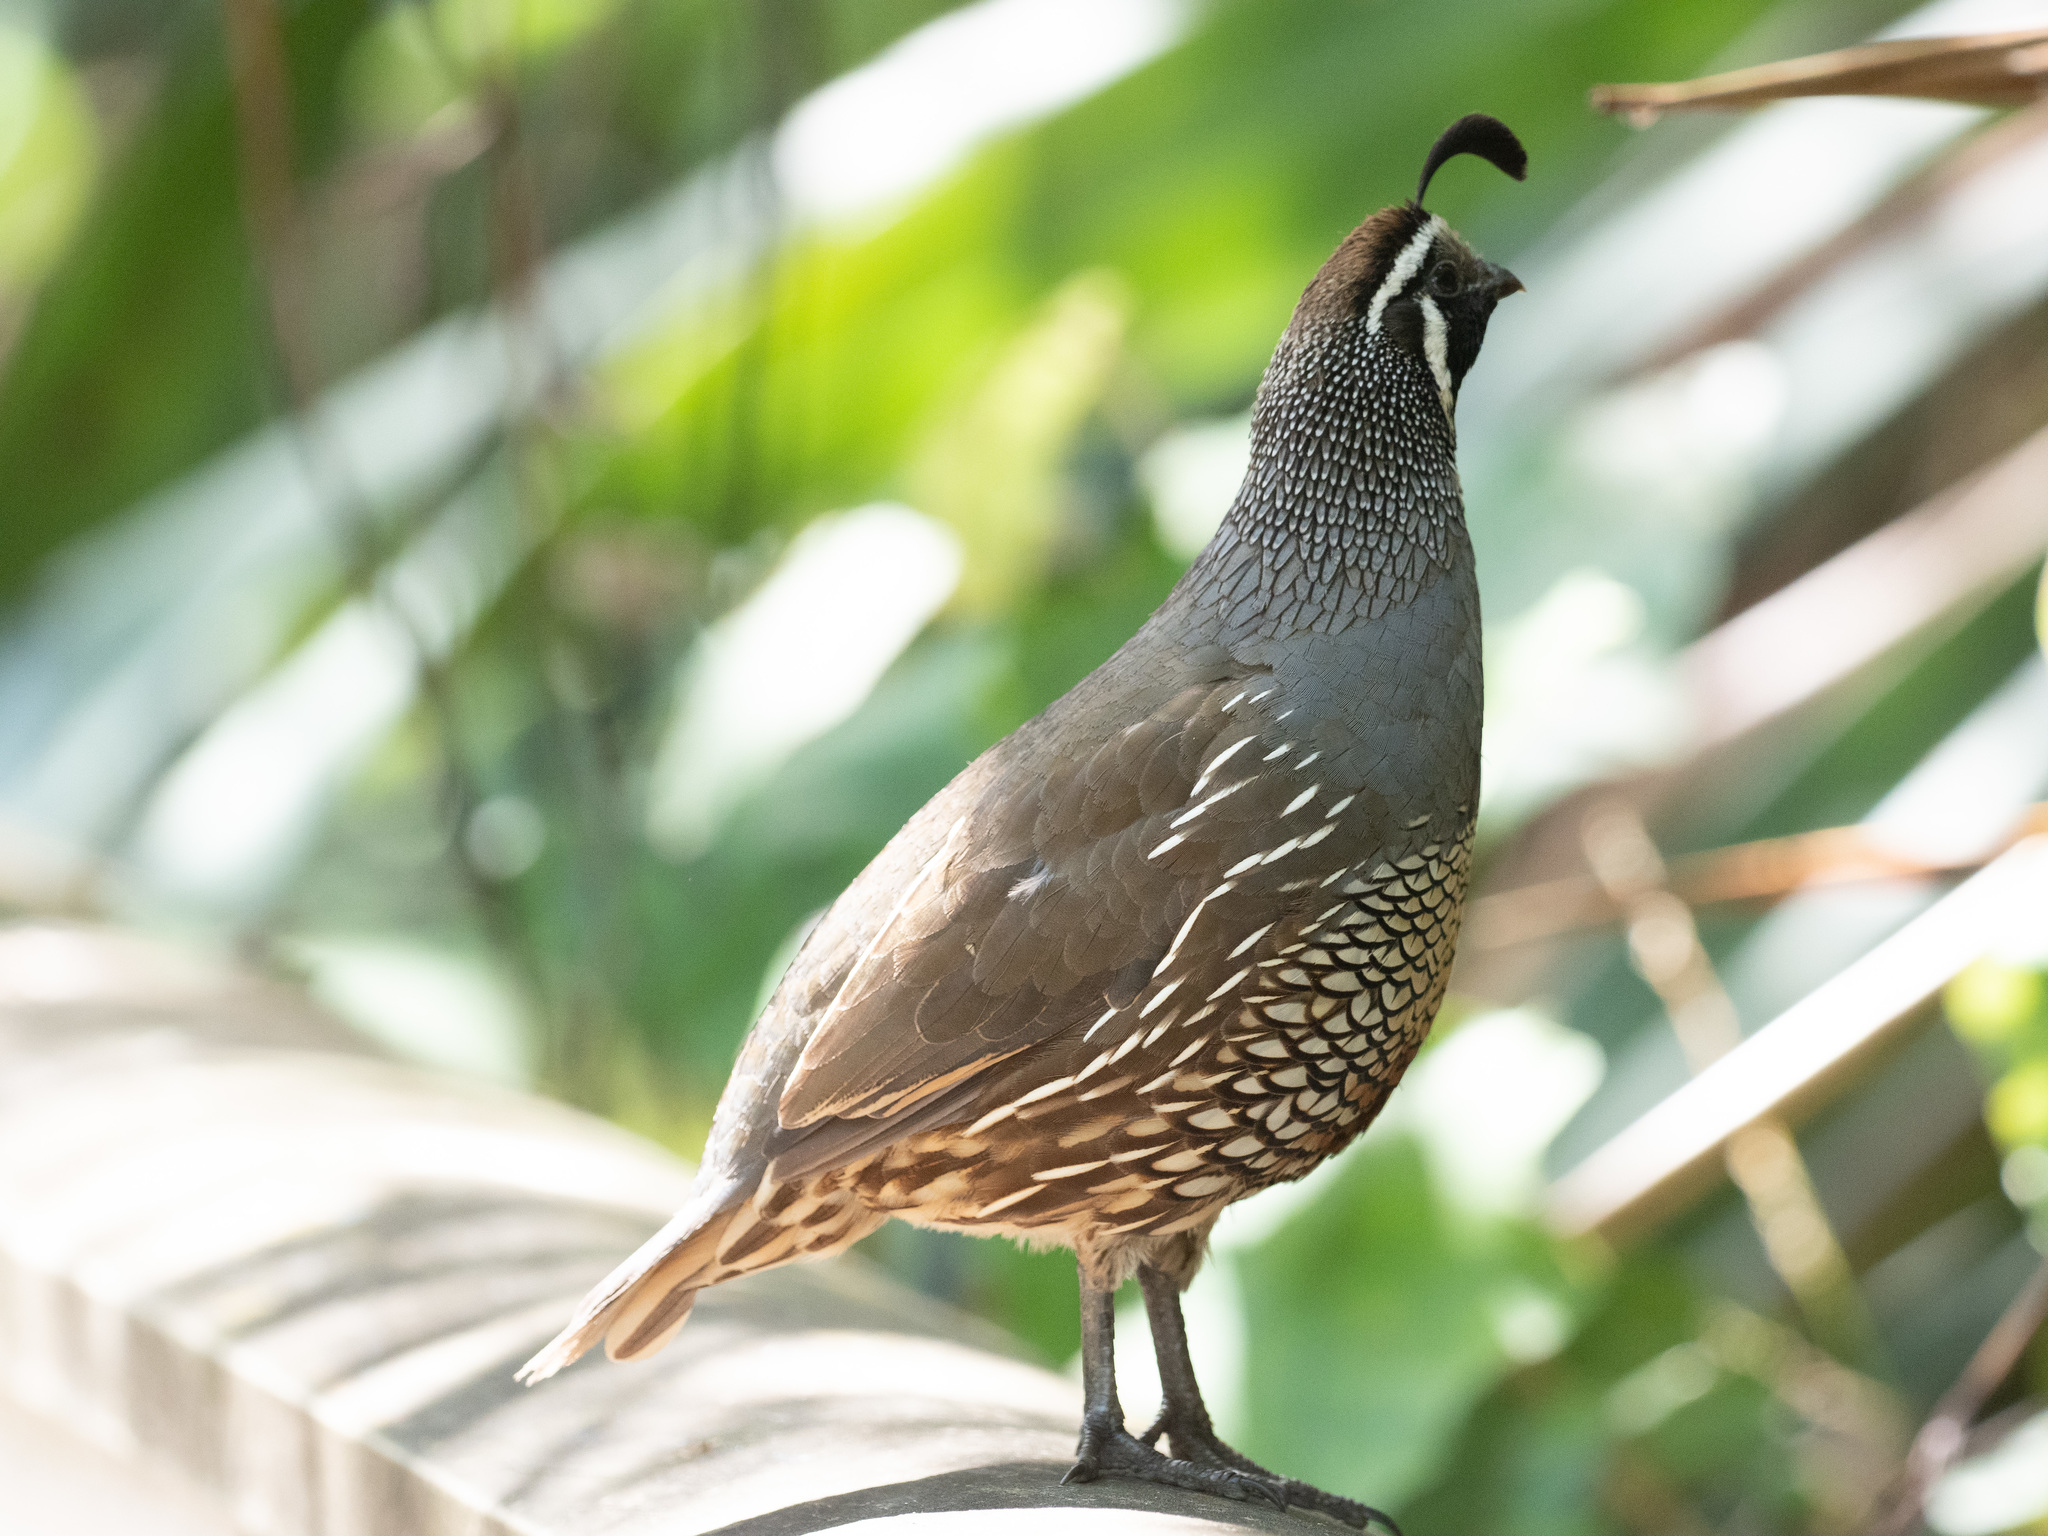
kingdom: Animalia
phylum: Chordata
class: Aves
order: Galliformes
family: Odontophoridae
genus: Callipepla
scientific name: Callipepla californica
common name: California quail
